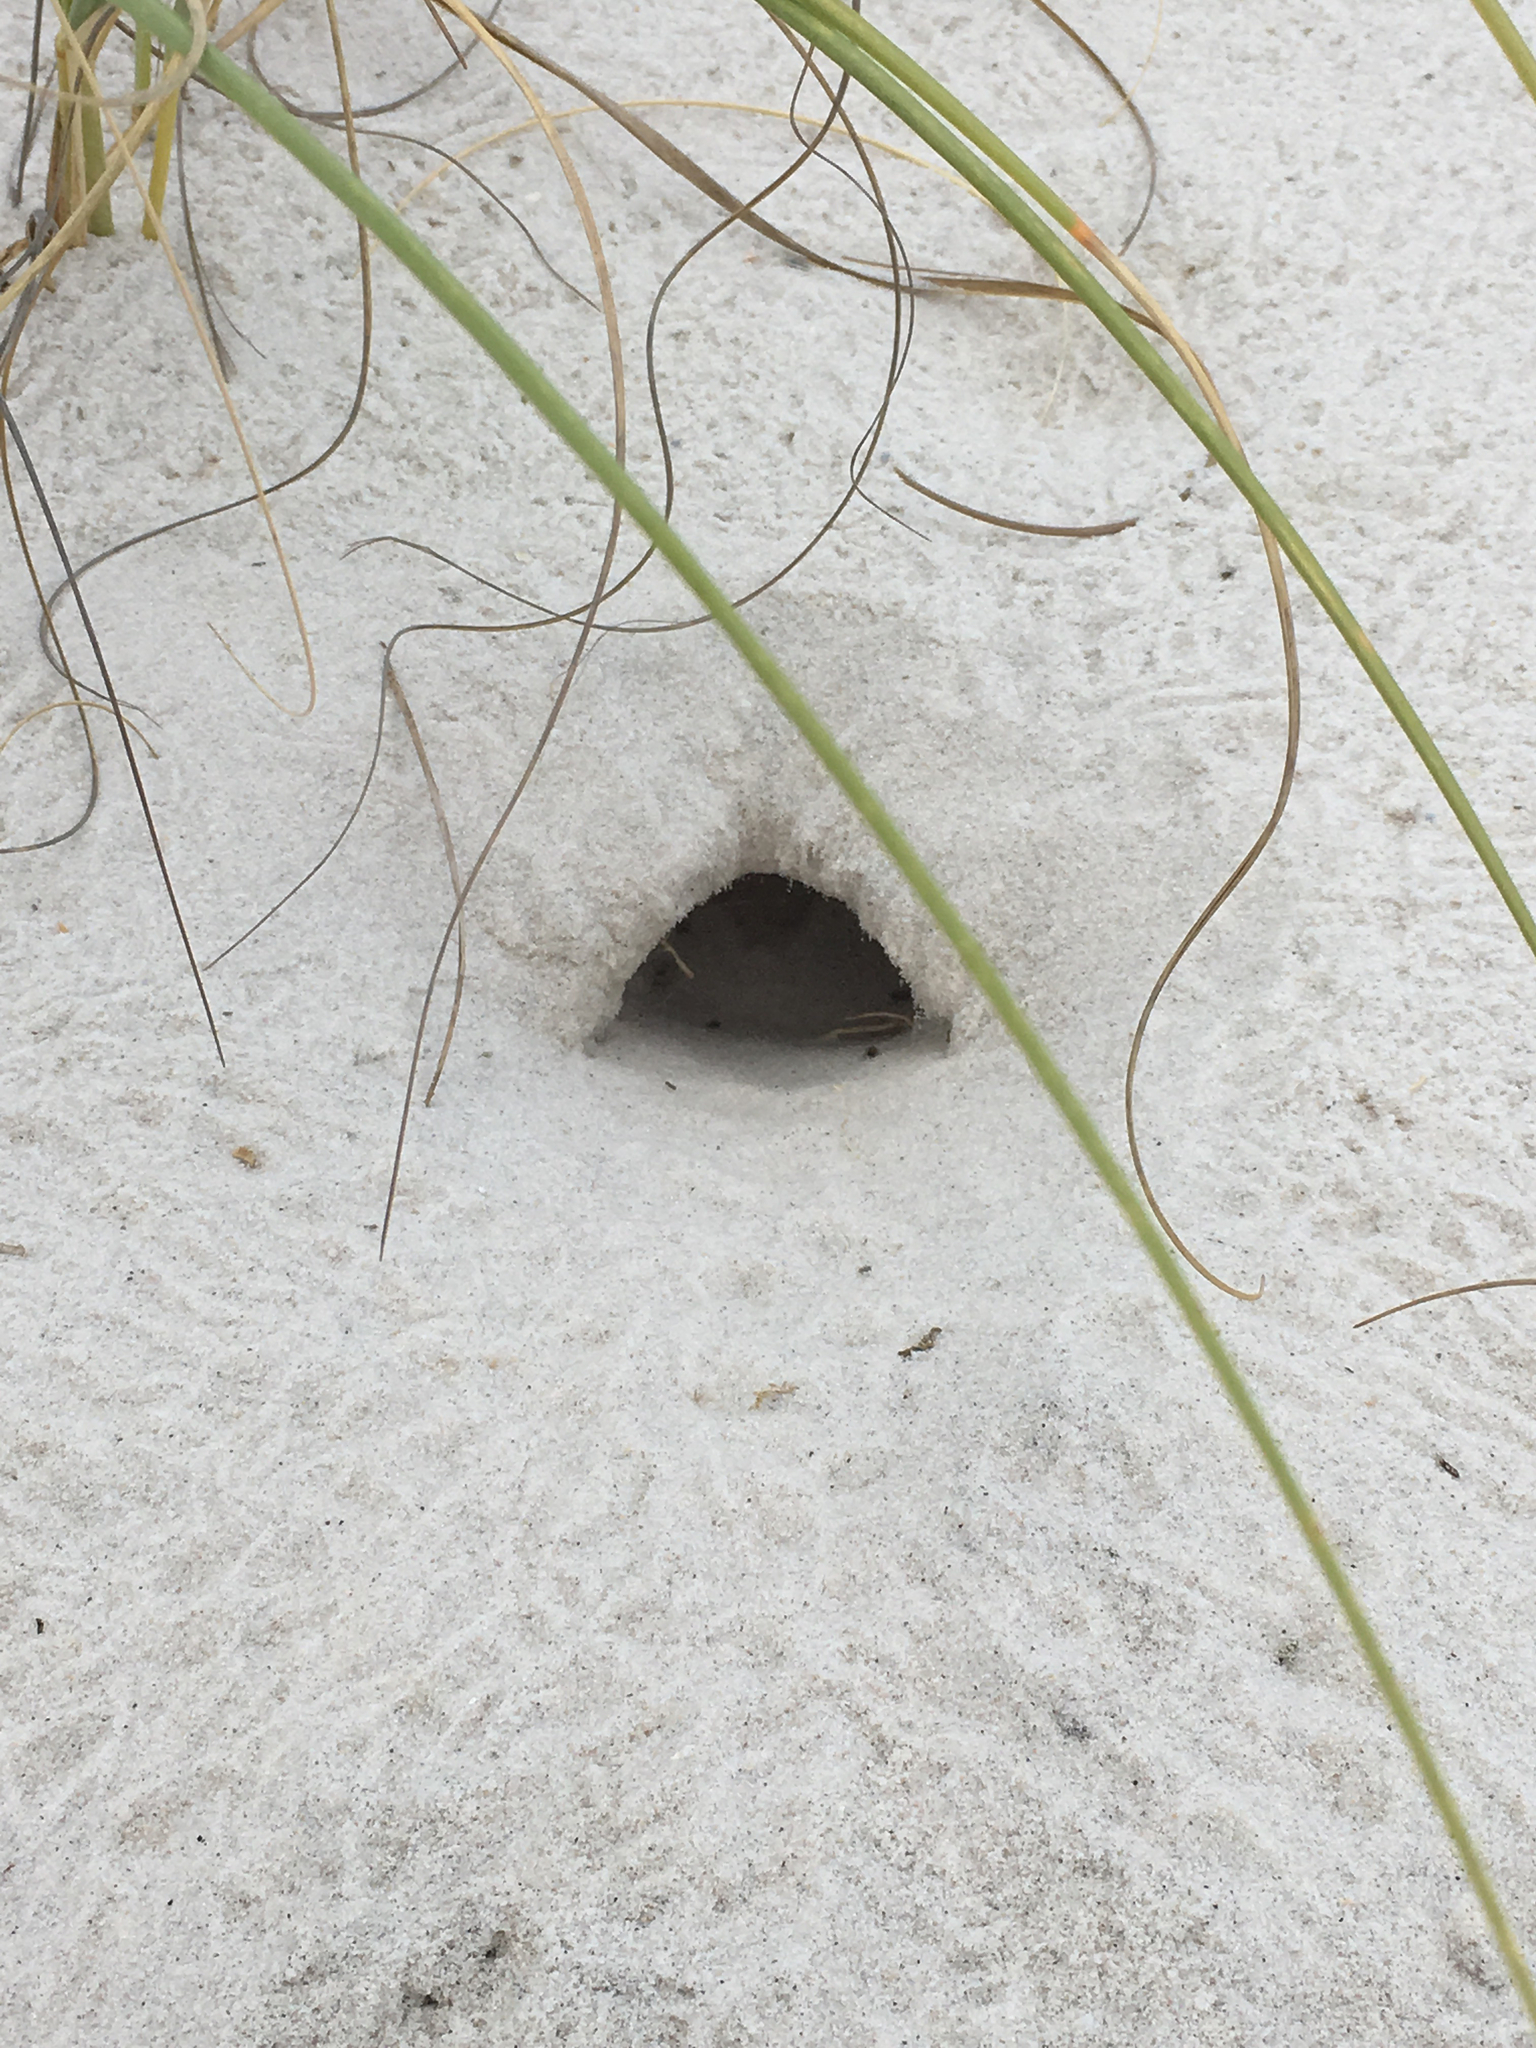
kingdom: Animalia
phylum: Arthropoda
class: Malacostraca
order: Decapoda
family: Ocypodidae
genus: Ocypode
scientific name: Ocypode quadrata
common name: Ghost crab
